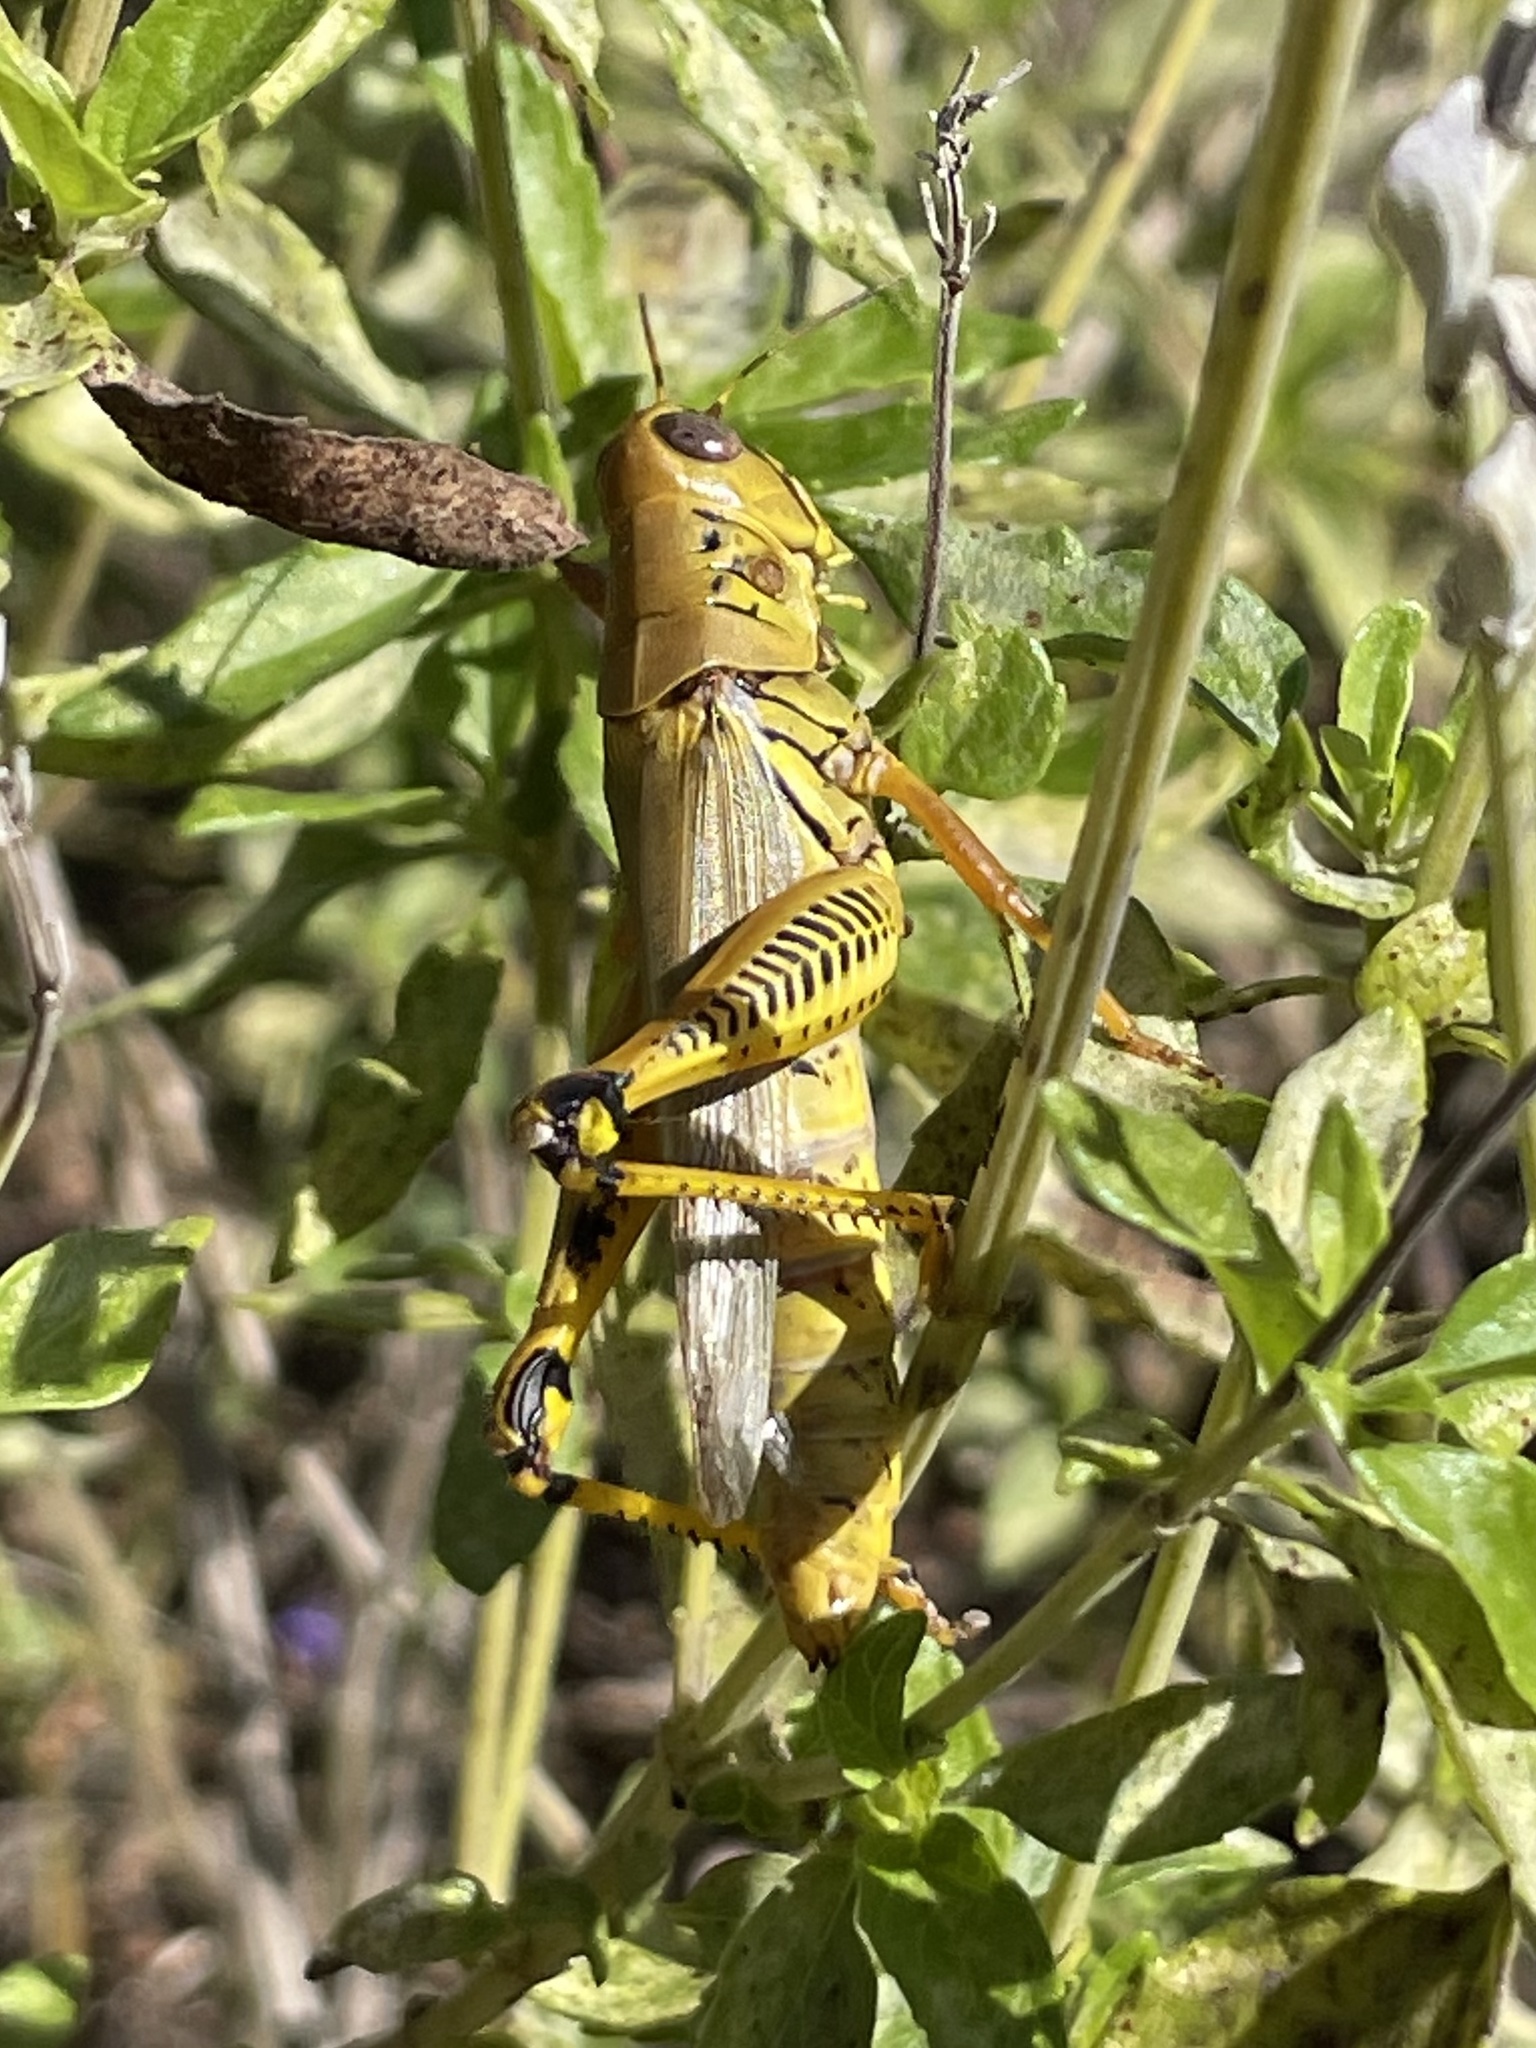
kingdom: Animalia
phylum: Arthropoda
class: Insecta
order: Orthoptera
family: Acrididae
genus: Melanoplus
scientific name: Melanoplus differentialis
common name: Differential grasshopper
